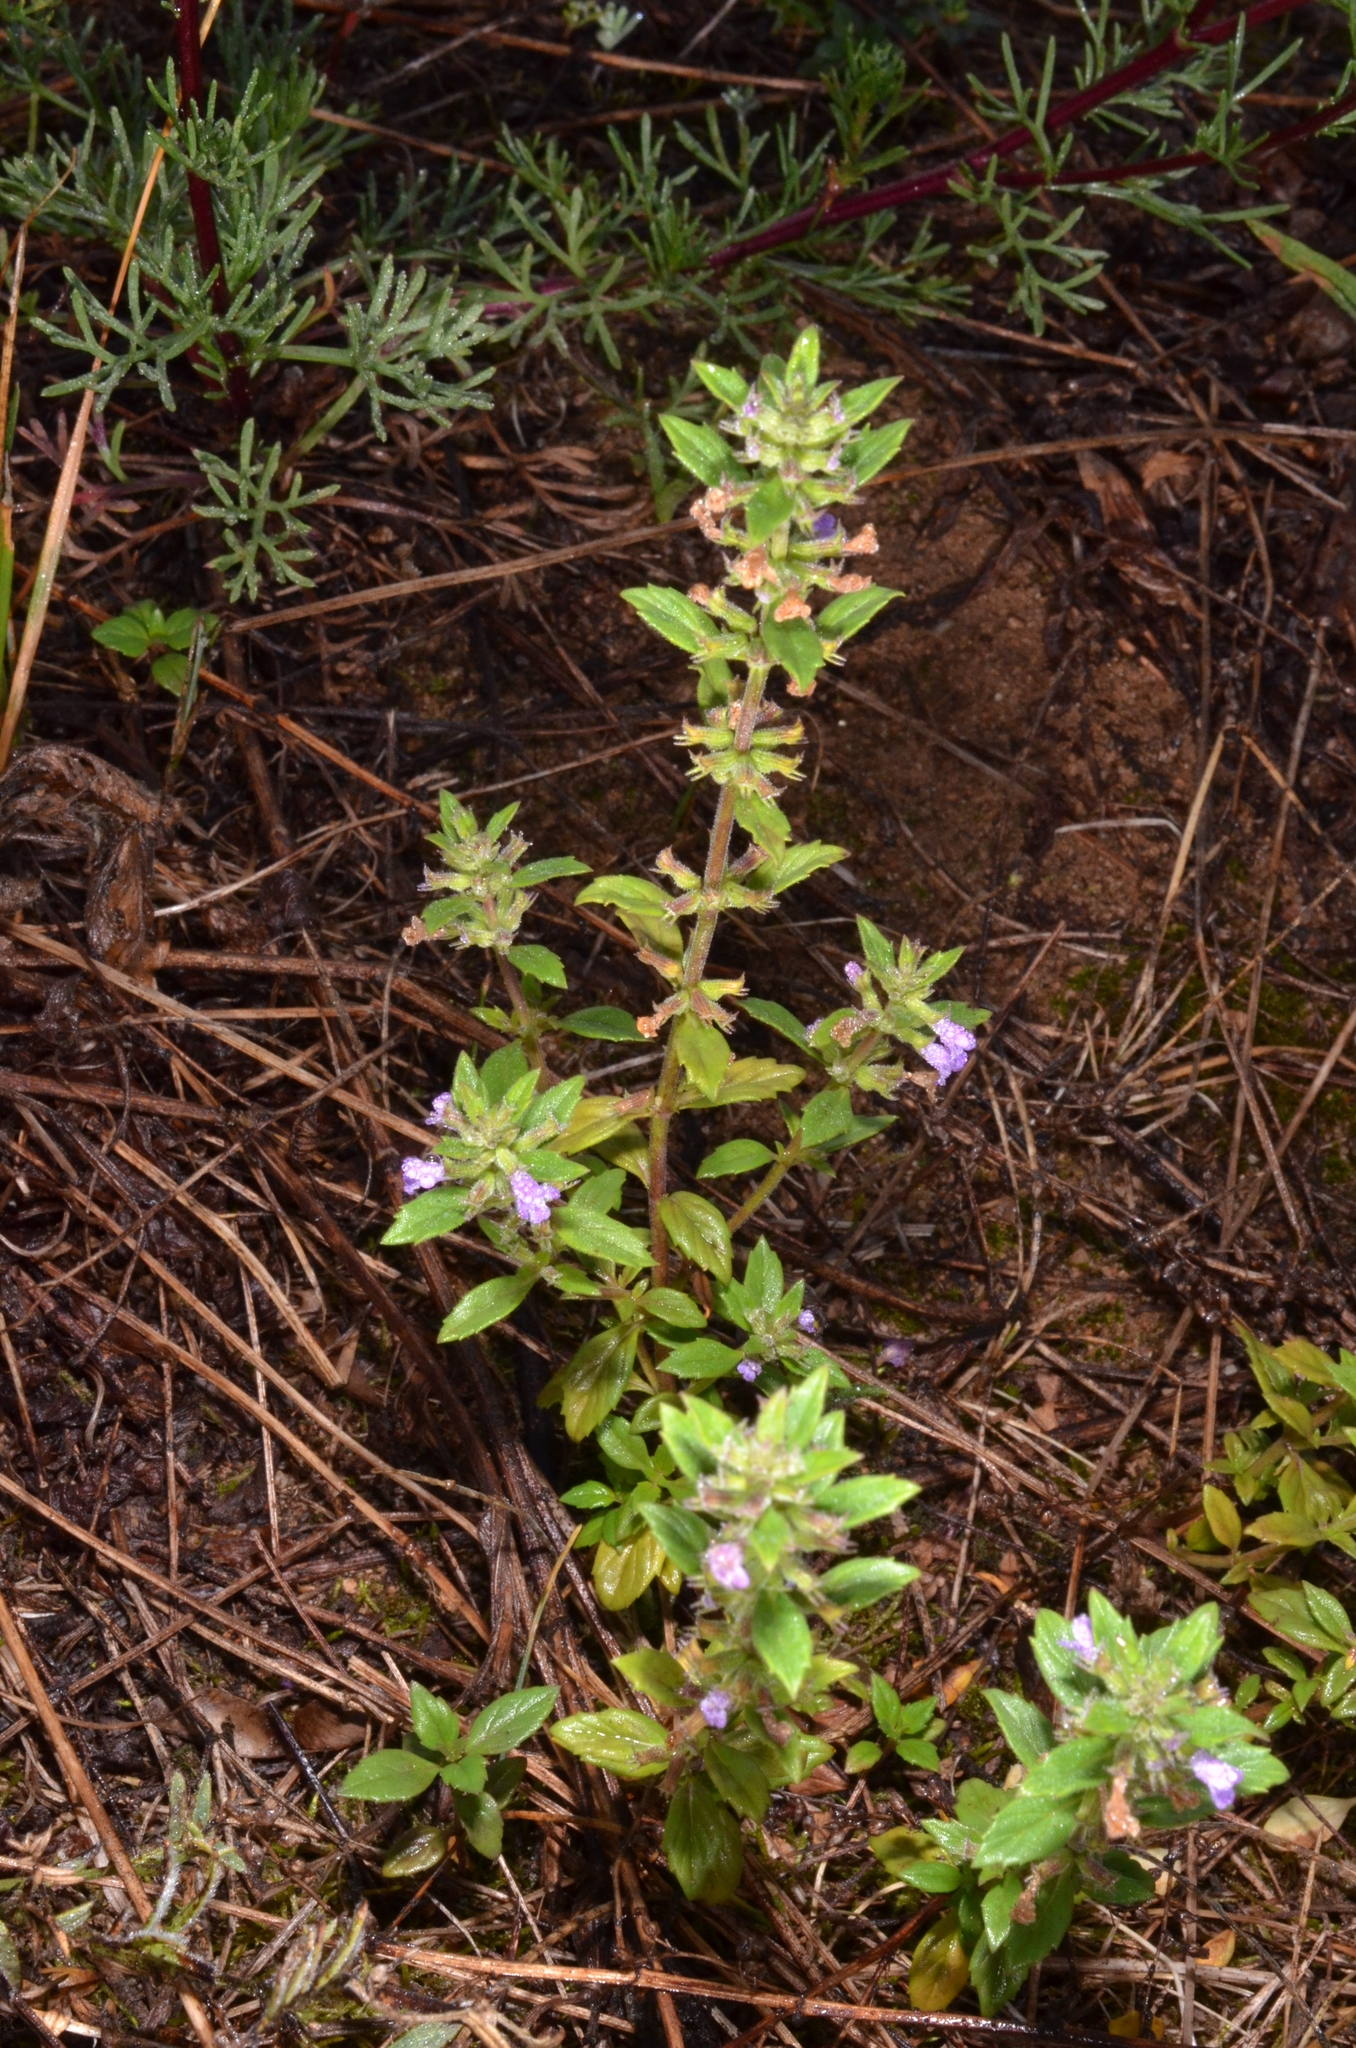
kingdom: Plantae
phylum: Tracheophyta
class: Magnoliopsida
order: Lamiales
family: Lamiaceae
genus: Clinopodium
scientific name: Clinopodium acinos
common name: Basil thyme
